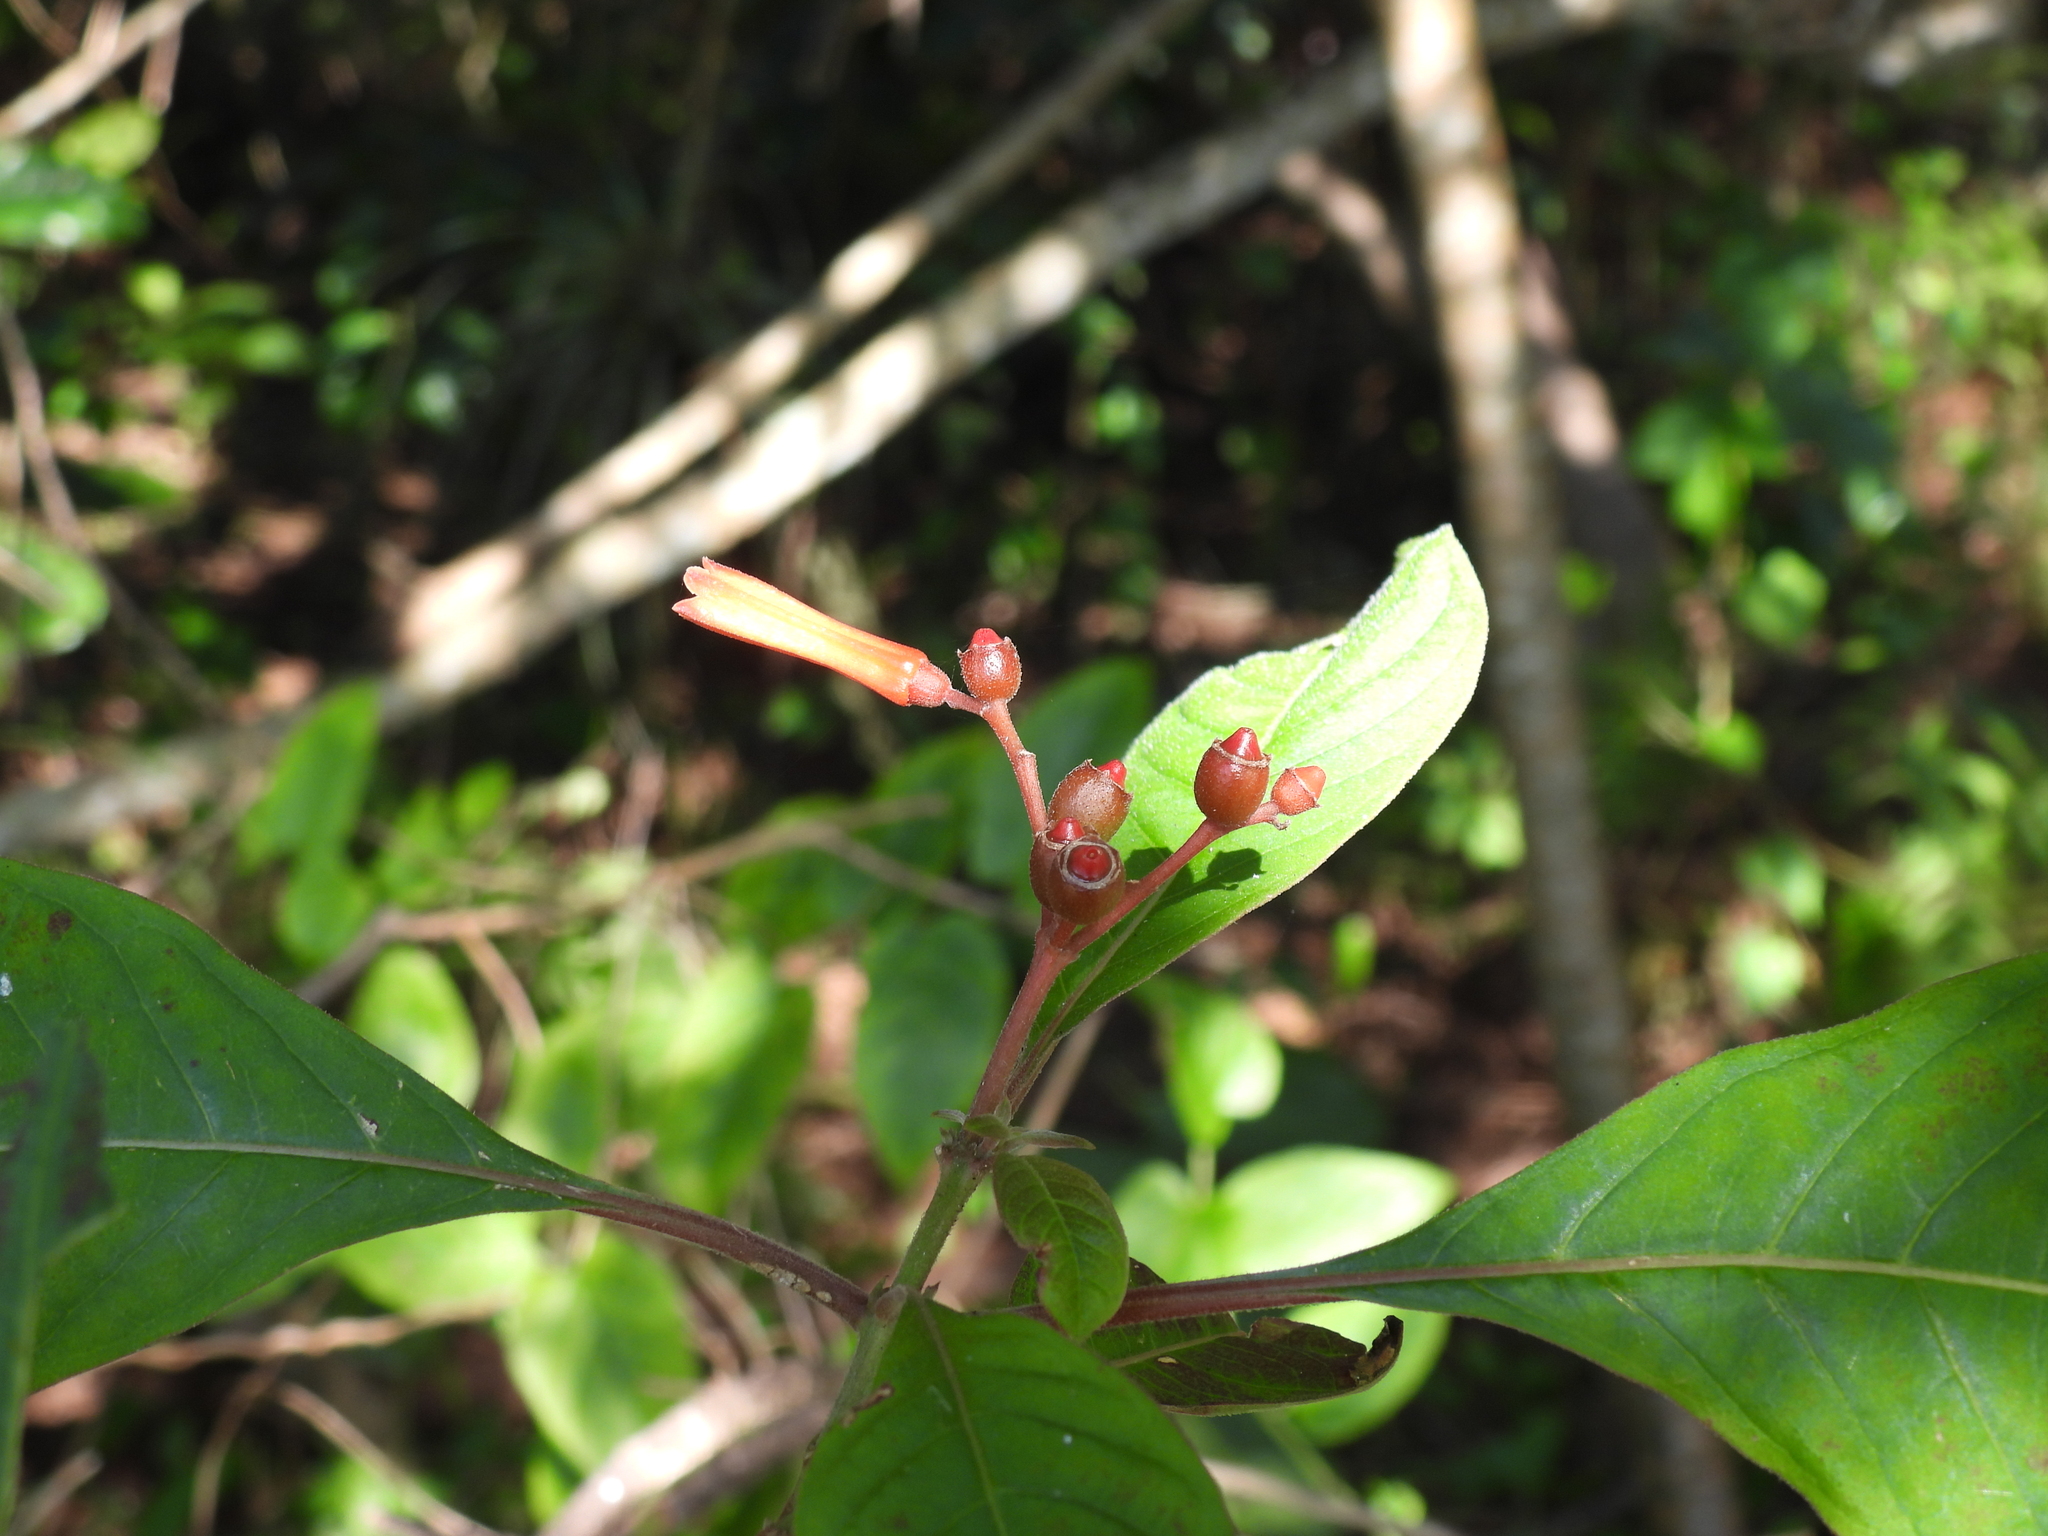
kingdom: Plantae
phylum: Tracheophyta
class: Magnoliopsida
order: Gentianales
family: Rubiaceae
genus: Hamelia
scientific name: Hamelia patens
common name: Redhead
